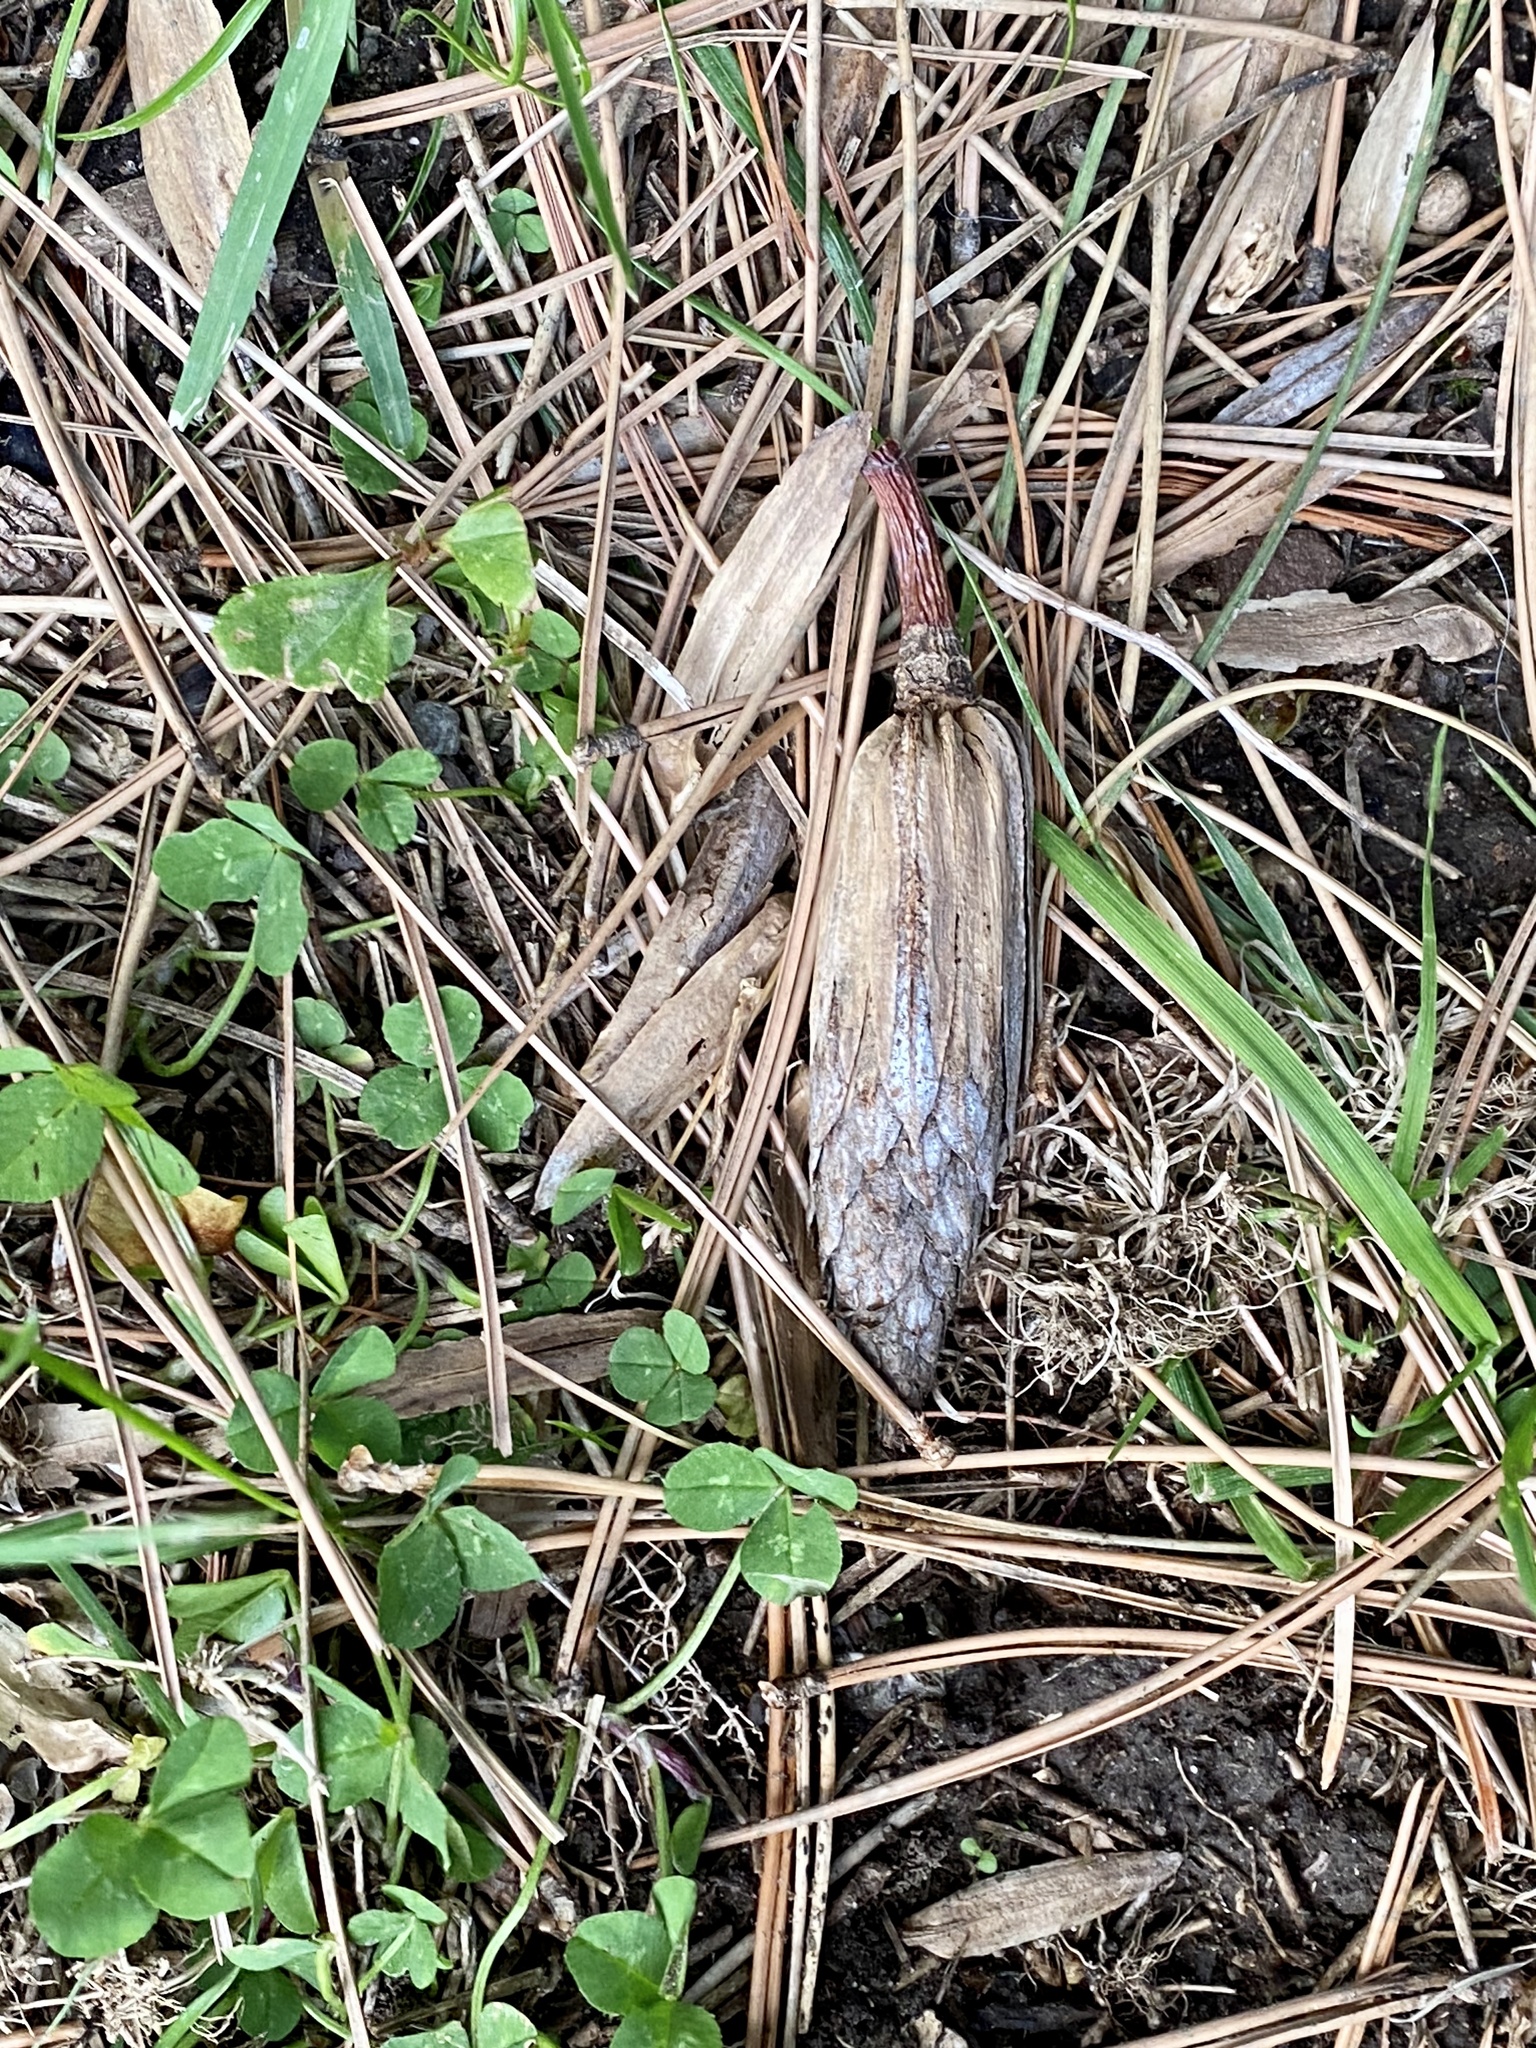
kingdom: Plantae
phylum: Tracheophyta
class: Magnoliopsida
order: Magnoliales
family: Magnoliaceae
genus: Liriodendron
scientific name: Liriodendron tulipifera
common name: Tulip tree
